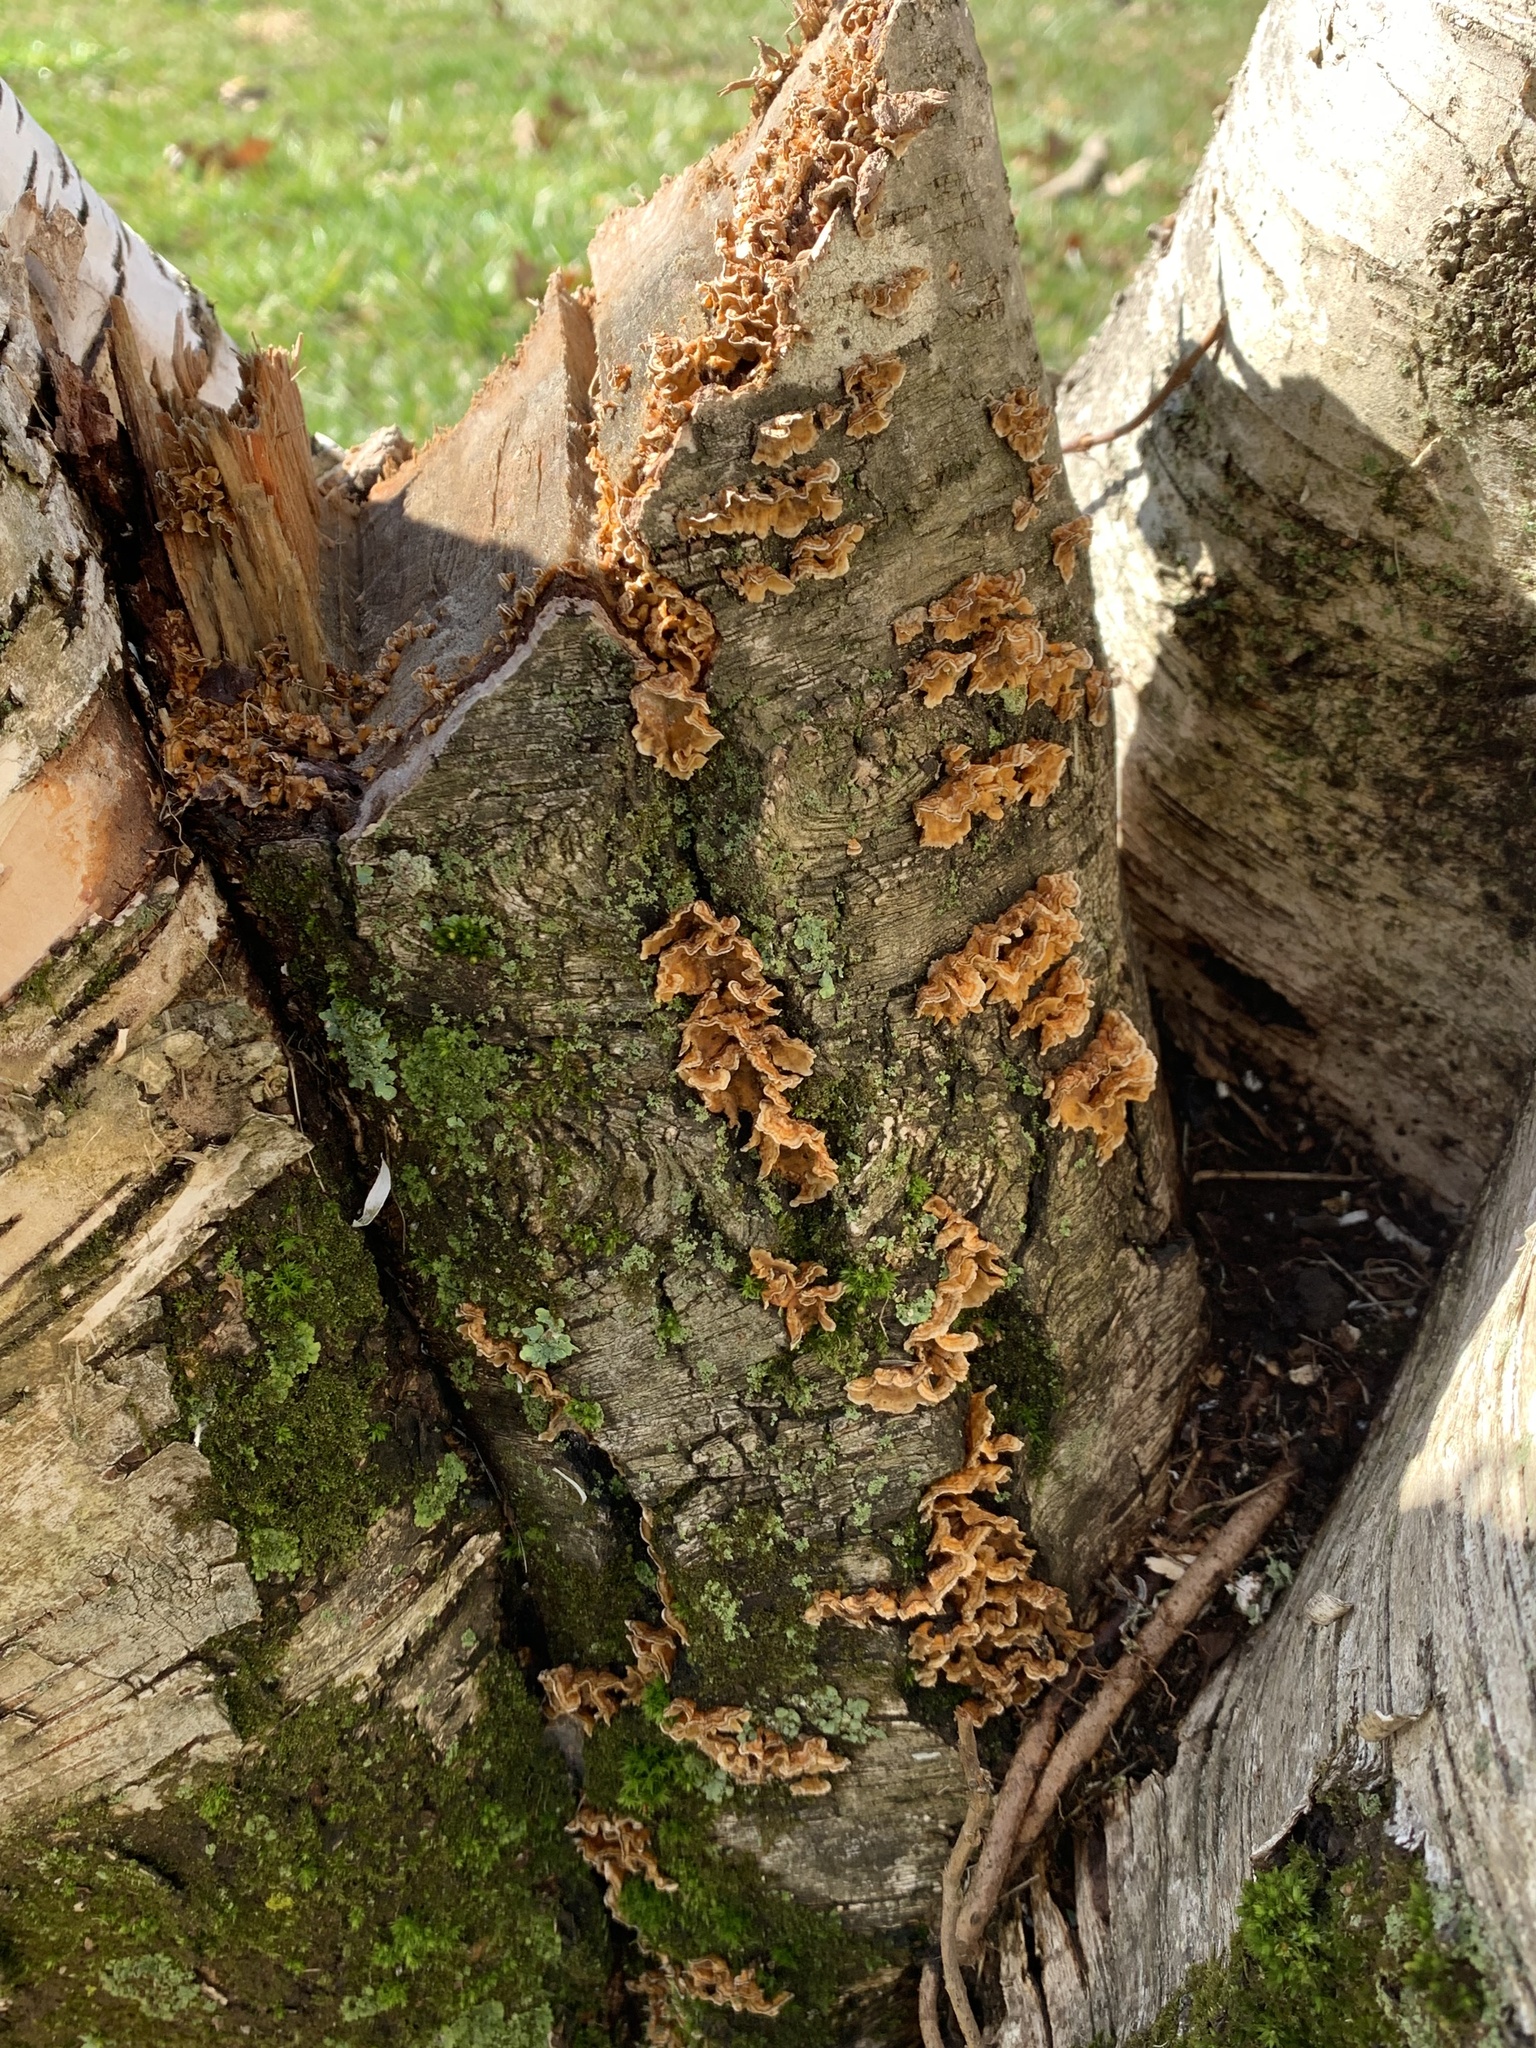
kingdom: Fungi
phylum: Basidiomycota
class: Agaricomycetes
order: Russulales
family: Stereaceae
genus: Stereum
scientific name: Stereum complicatum
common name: Crowded parchment
